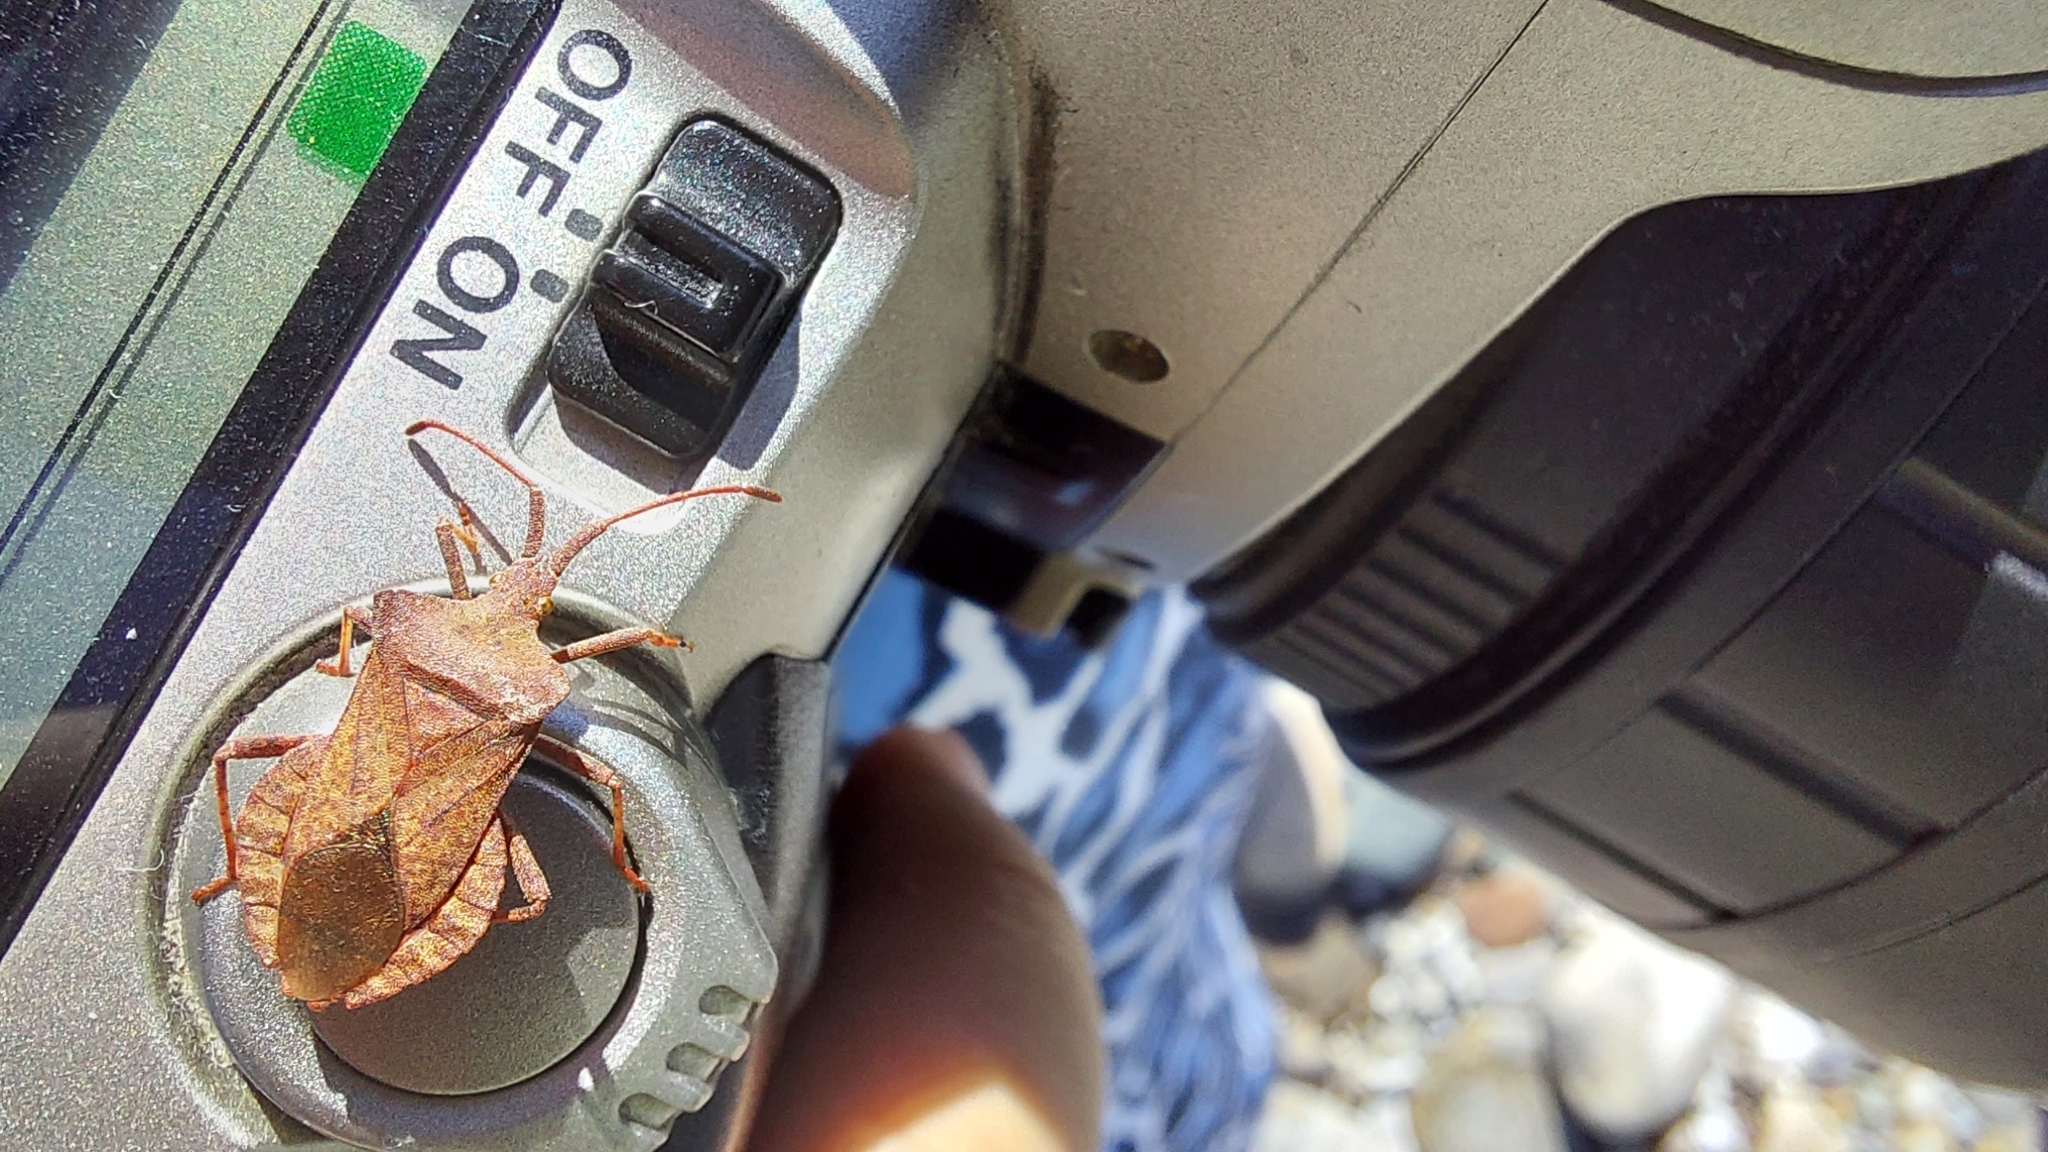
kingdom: Animalia
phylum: Arthropoda
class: Insecta
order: Hemiptera
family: Coreidae
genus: Coreus
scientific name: Coreus marginatus
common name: Dock bug
